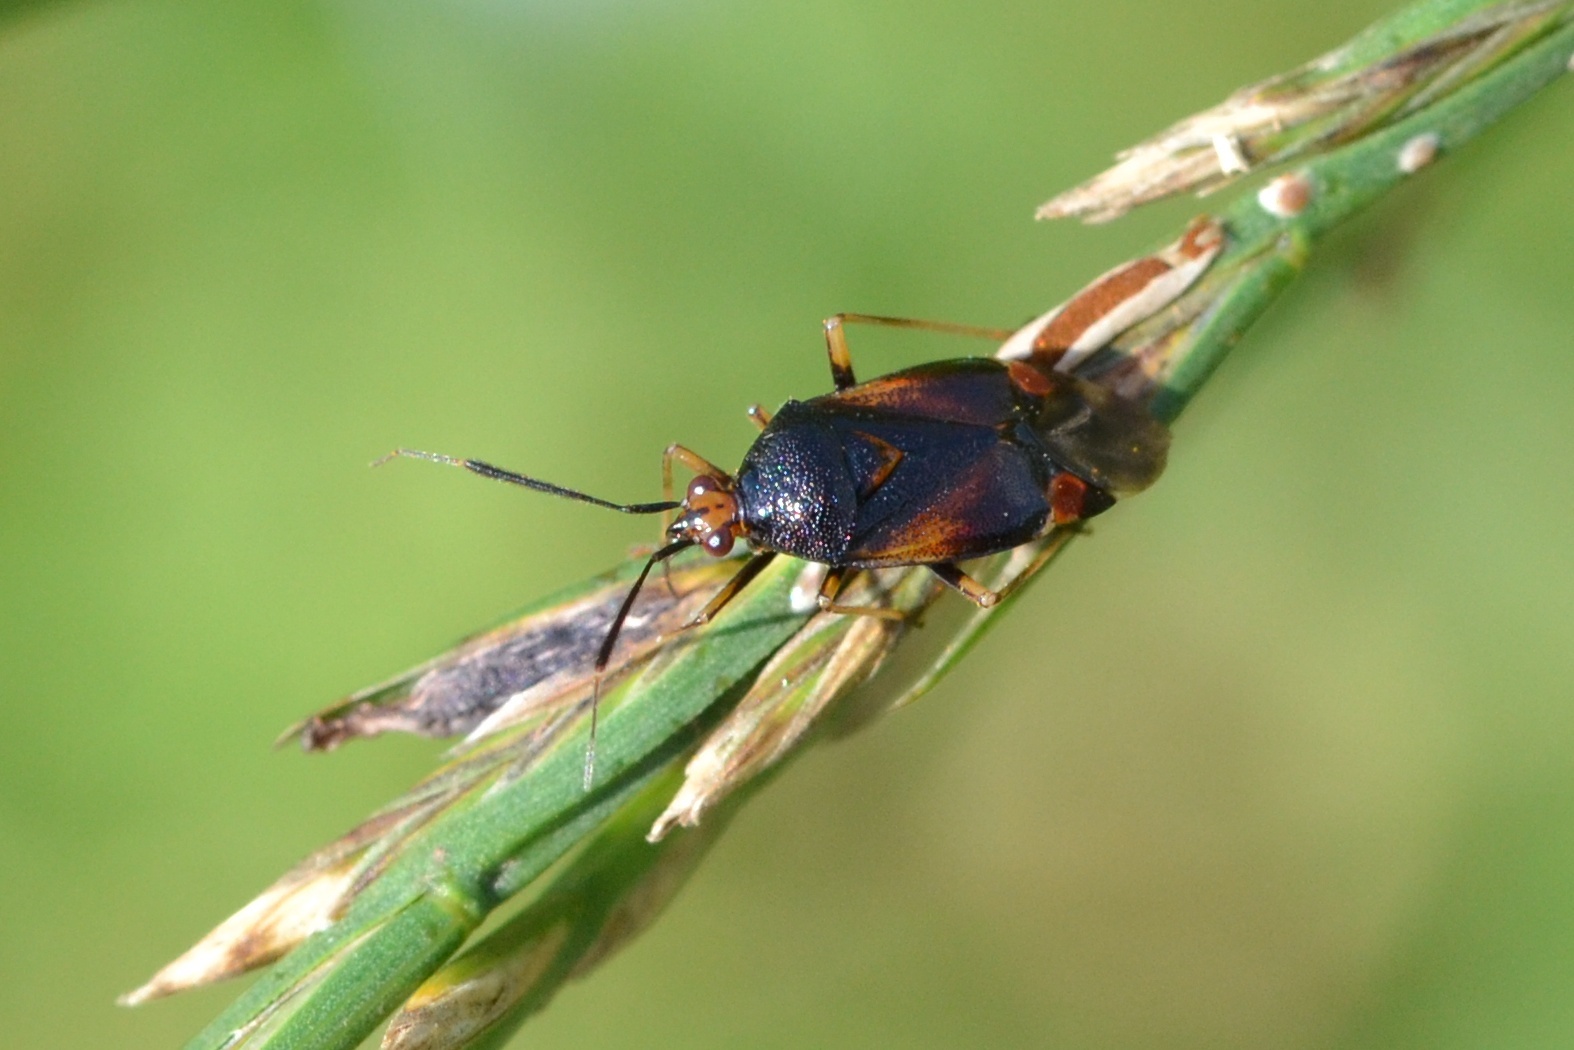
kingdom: Animalia
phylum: Arthropoda
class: Insecta
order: Hemiptera
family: Miridae
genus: Deraeocoris
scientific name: Deraeocoris ruber
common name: Plant bug
